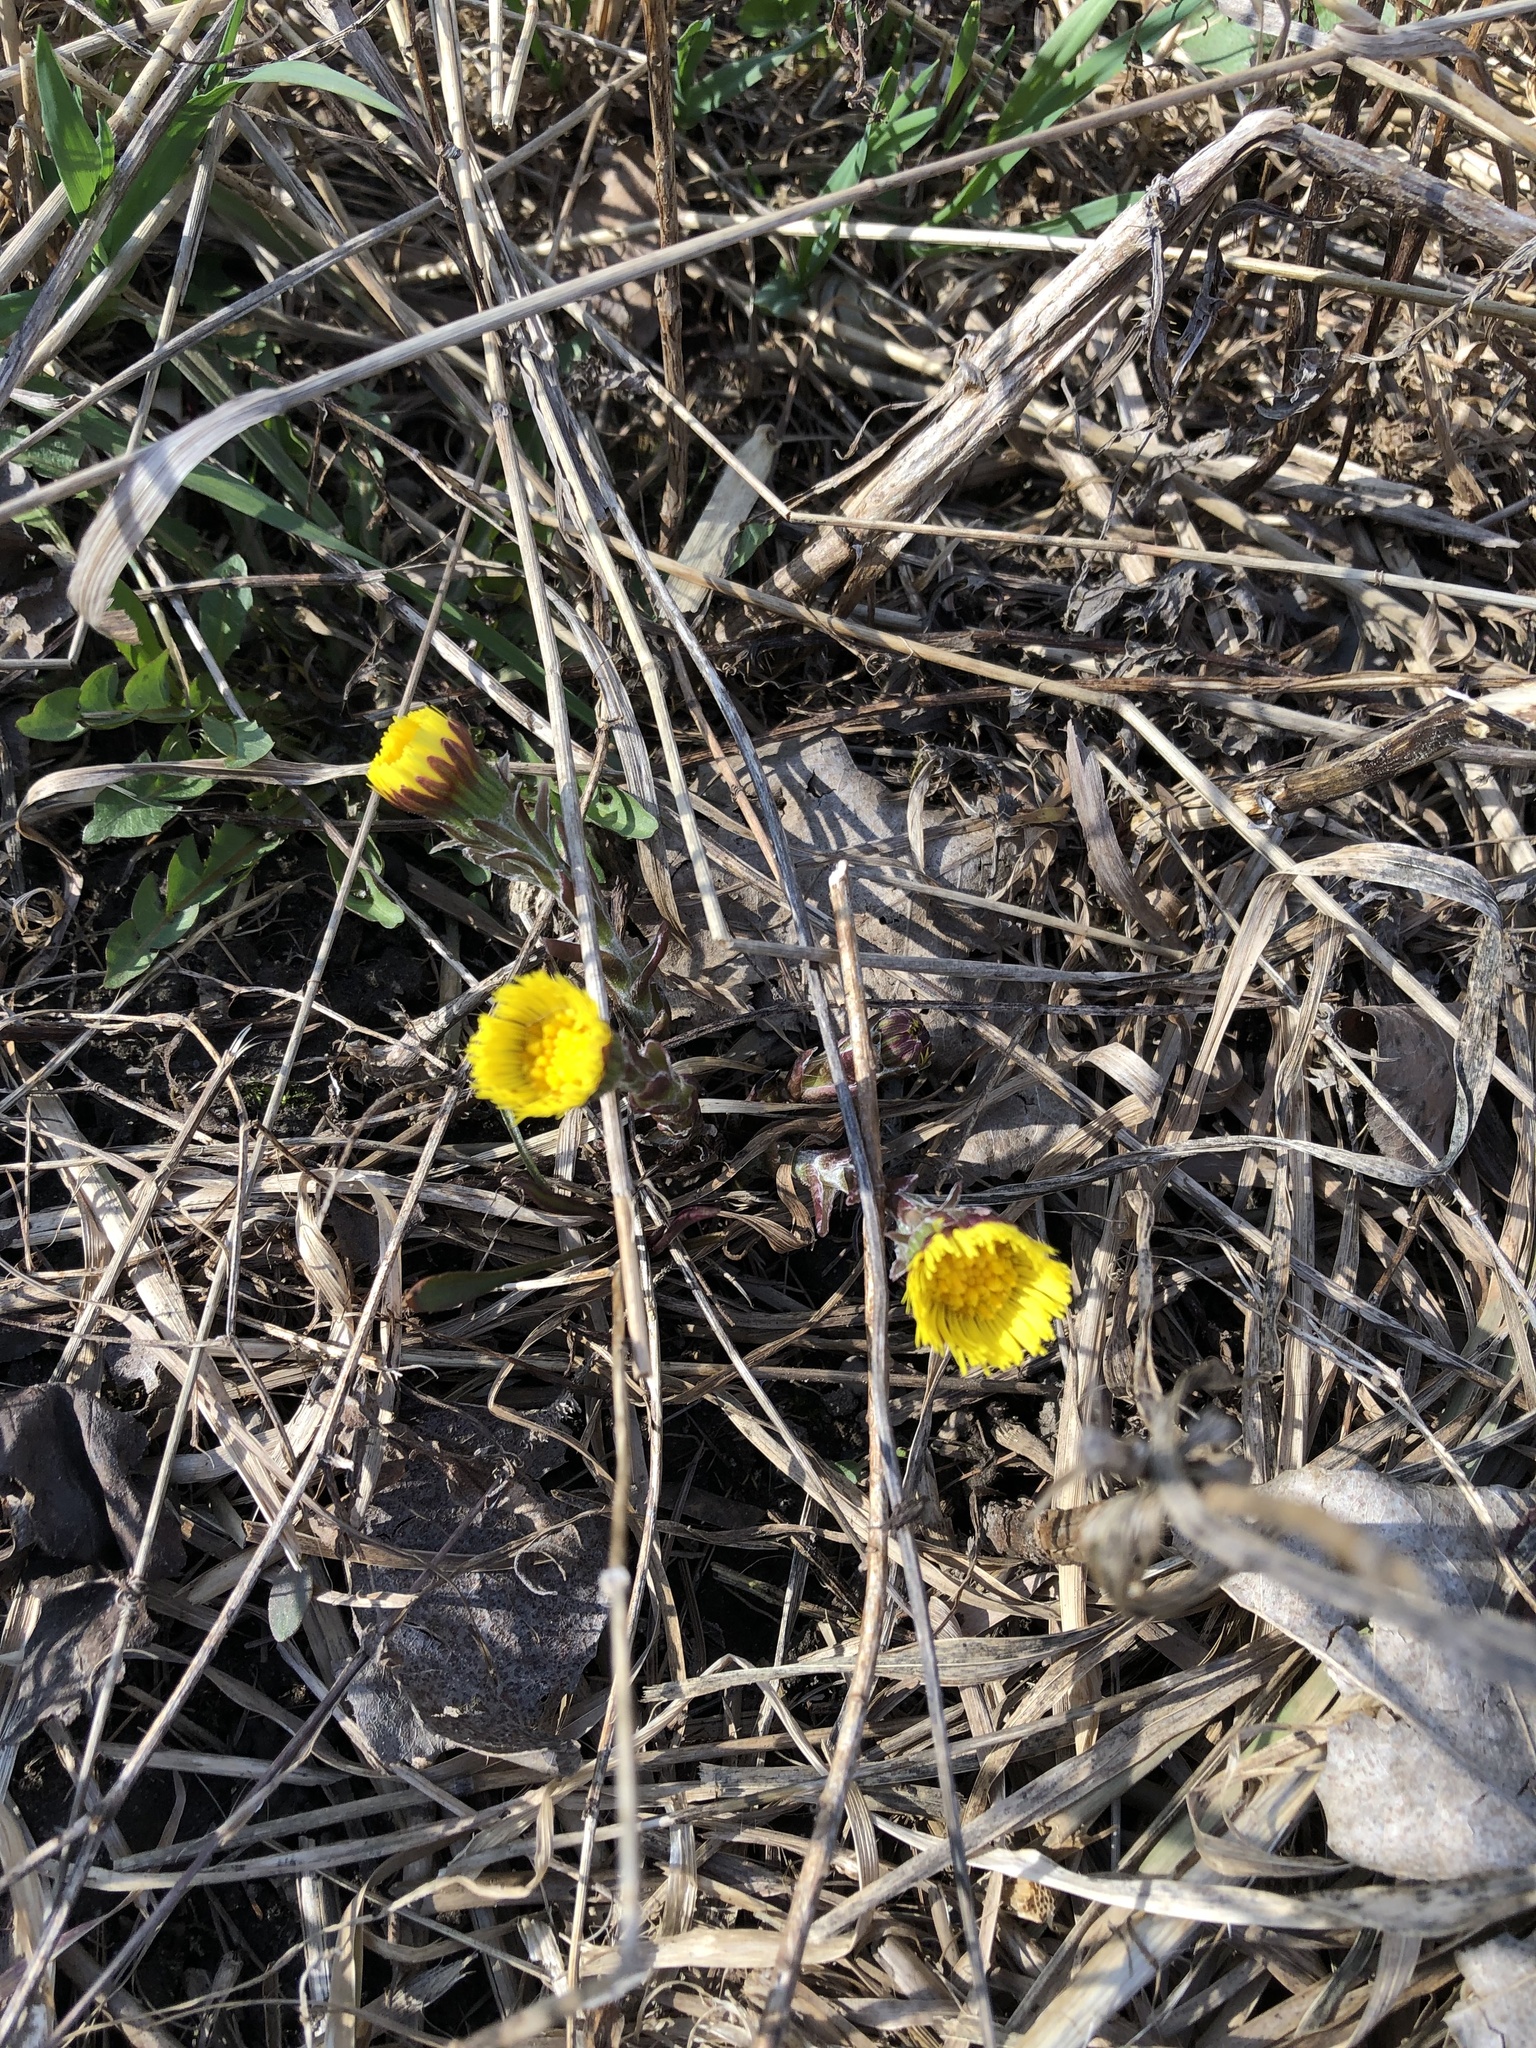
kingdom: Plantae
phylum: Tracheophyta
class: Magnoliopsida
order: Asterales
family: Asteraceae
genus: Tussilago
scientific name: Tussilago farfara
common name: Coltsfoot
